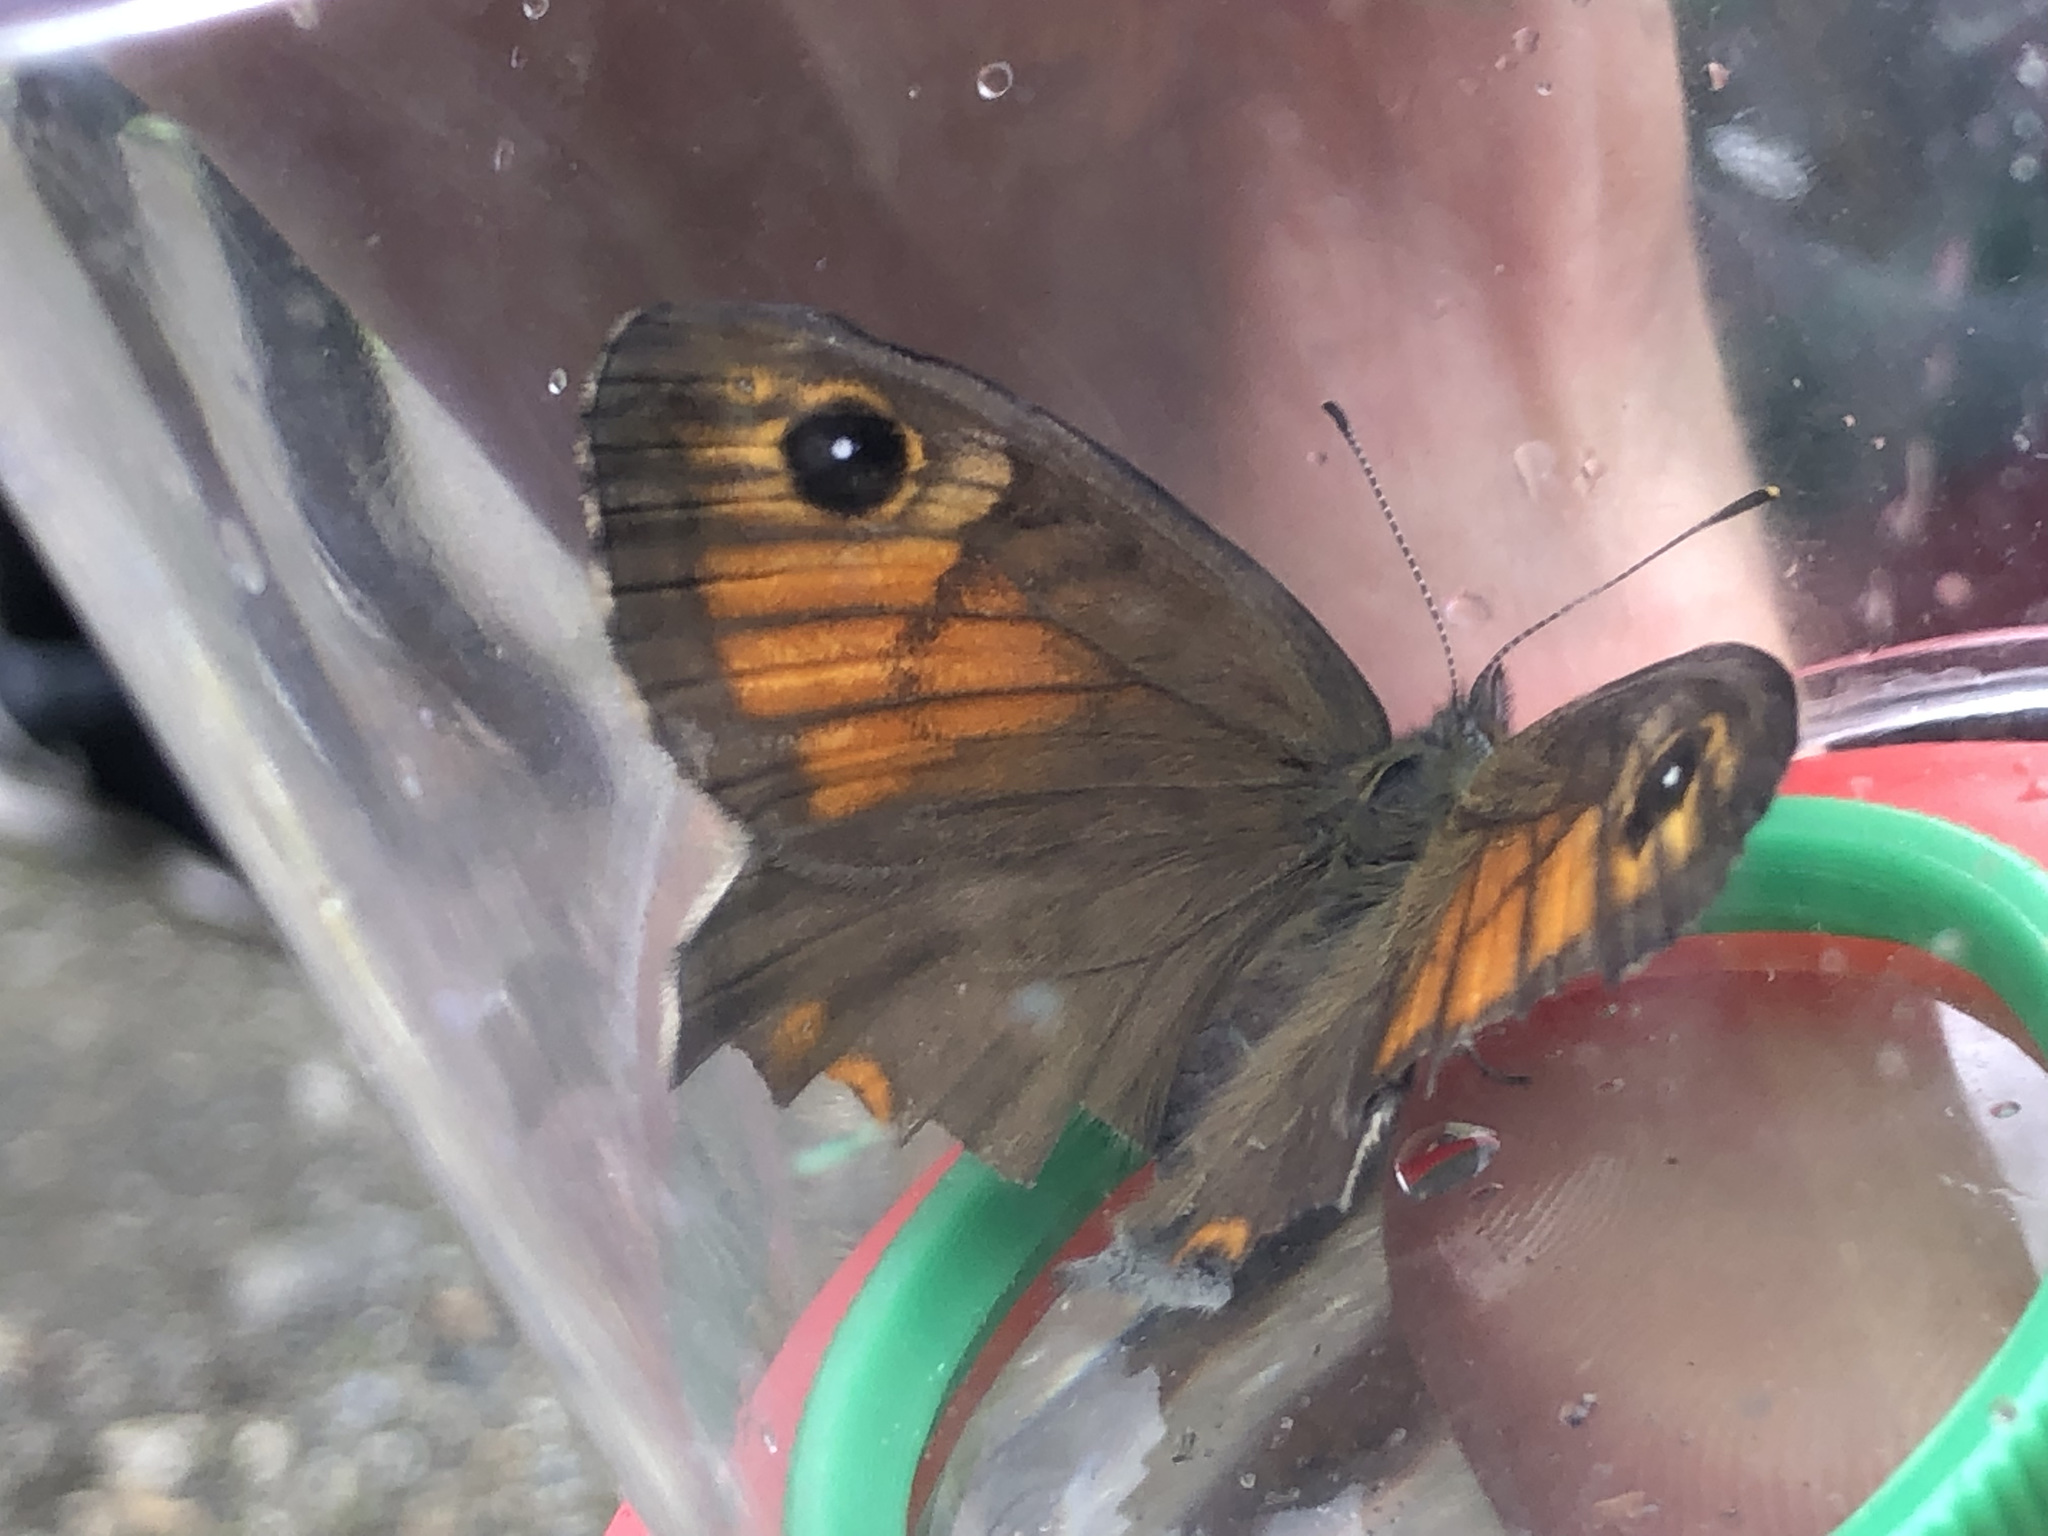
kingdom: Animalia
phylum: Arthropoda
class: Insecta
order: Lepidoptera
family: Nymphalidae
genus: Pararge
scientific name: Pararge Lasiommata maera
